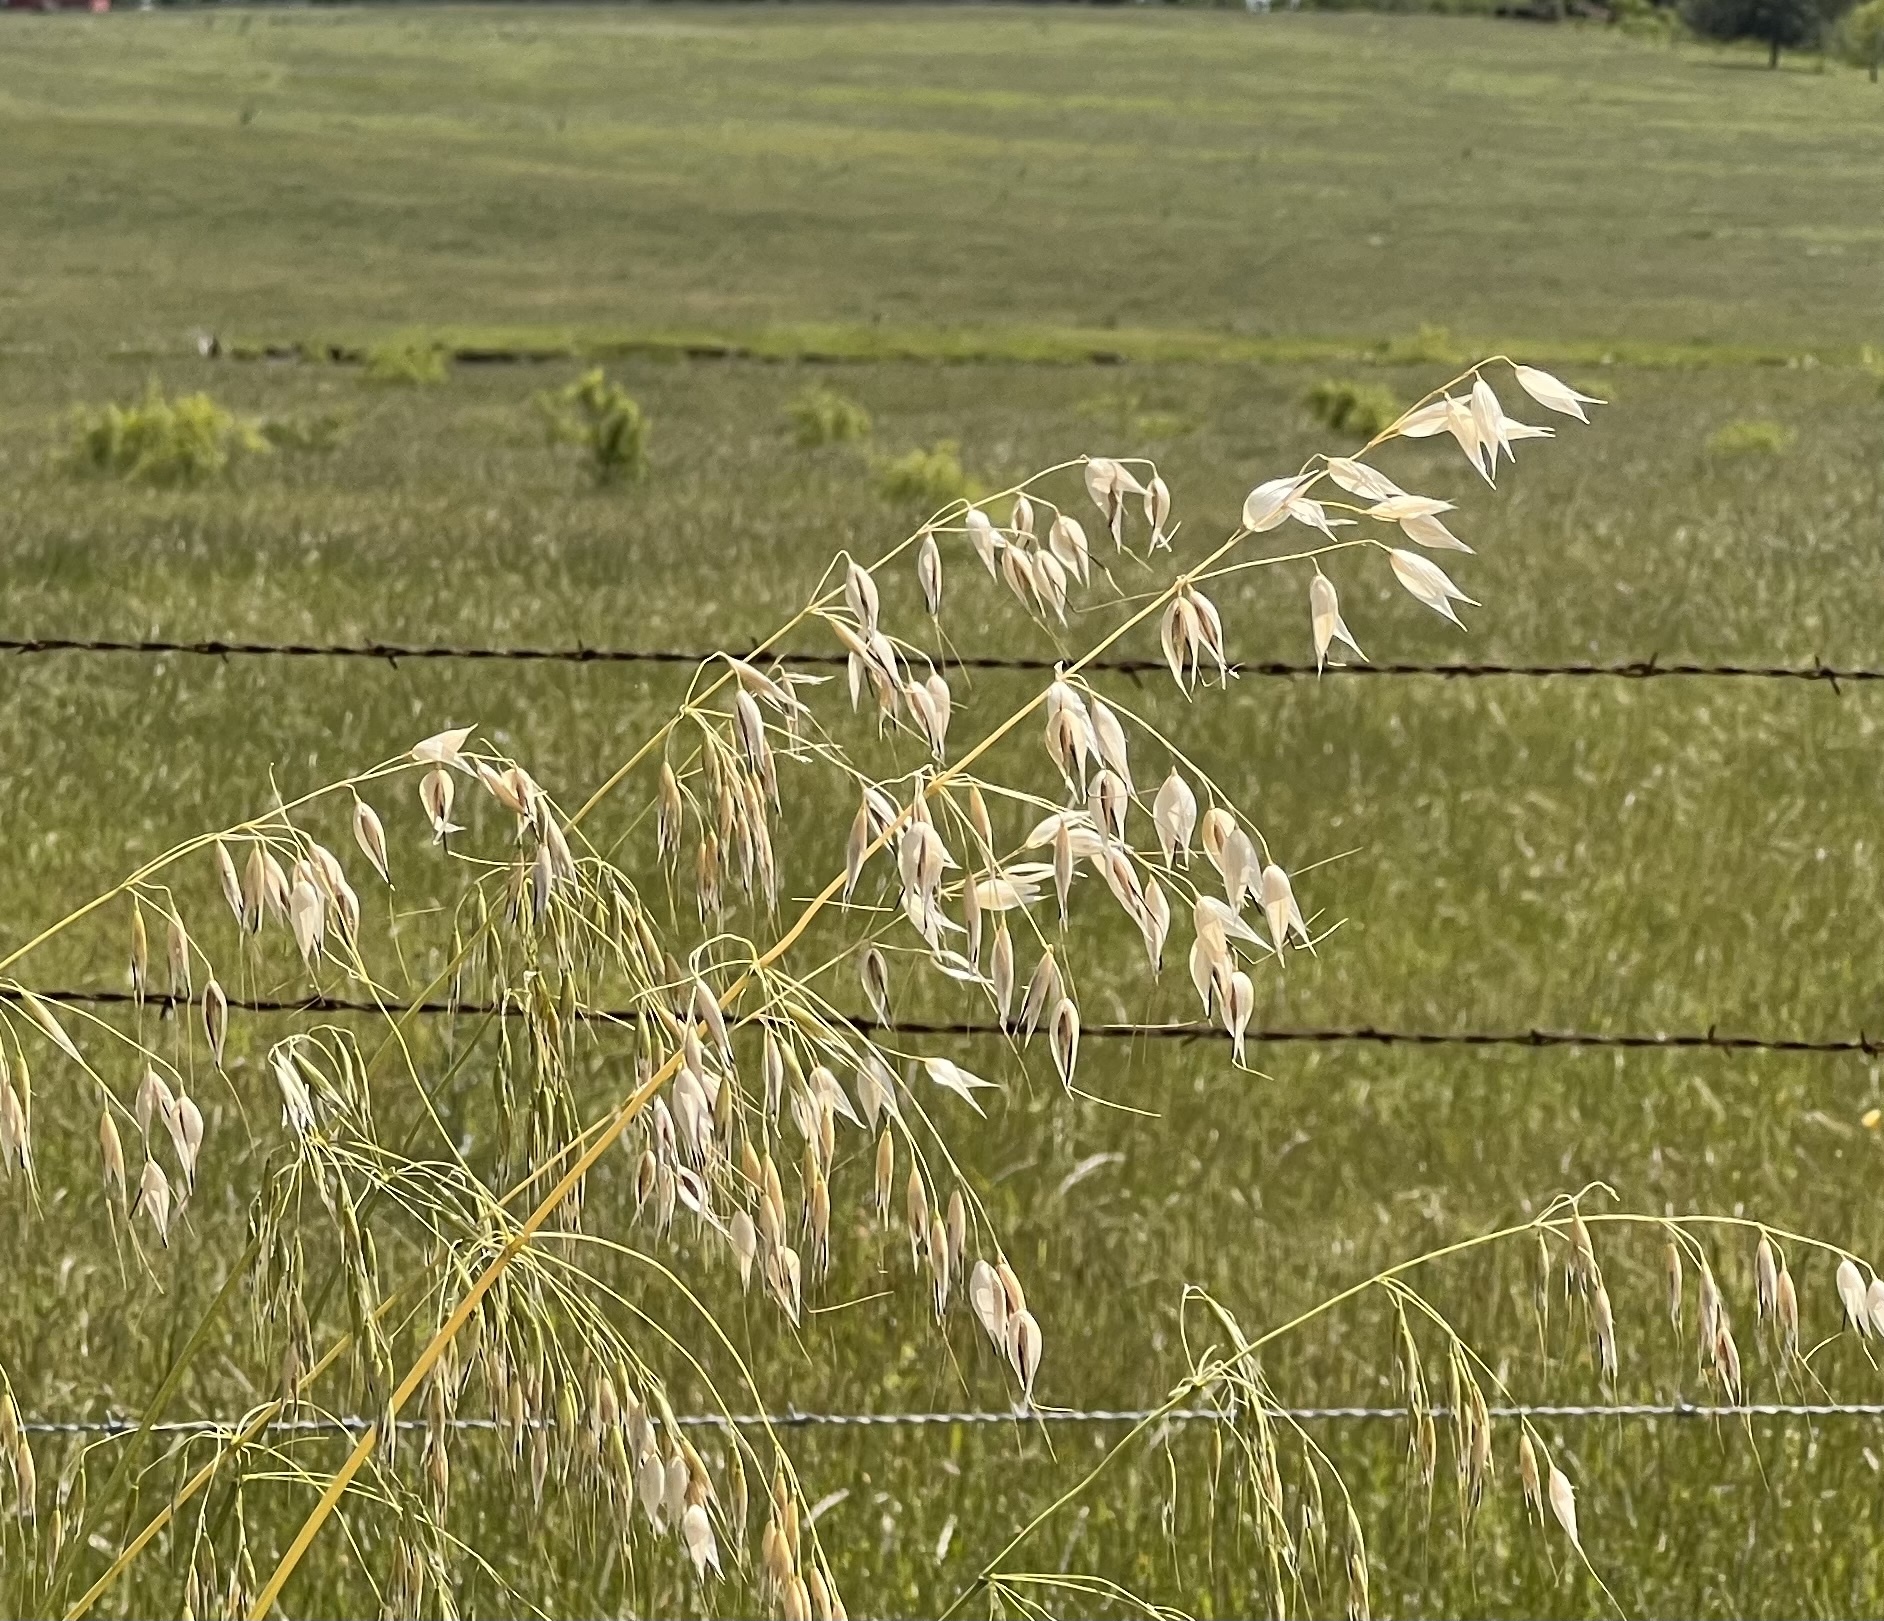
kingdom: Plantae
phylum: Tracheophyta
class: Liliopsida
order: Poales
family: Poaceae
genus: Avena
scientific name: Avena fatua
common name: Wild oat
